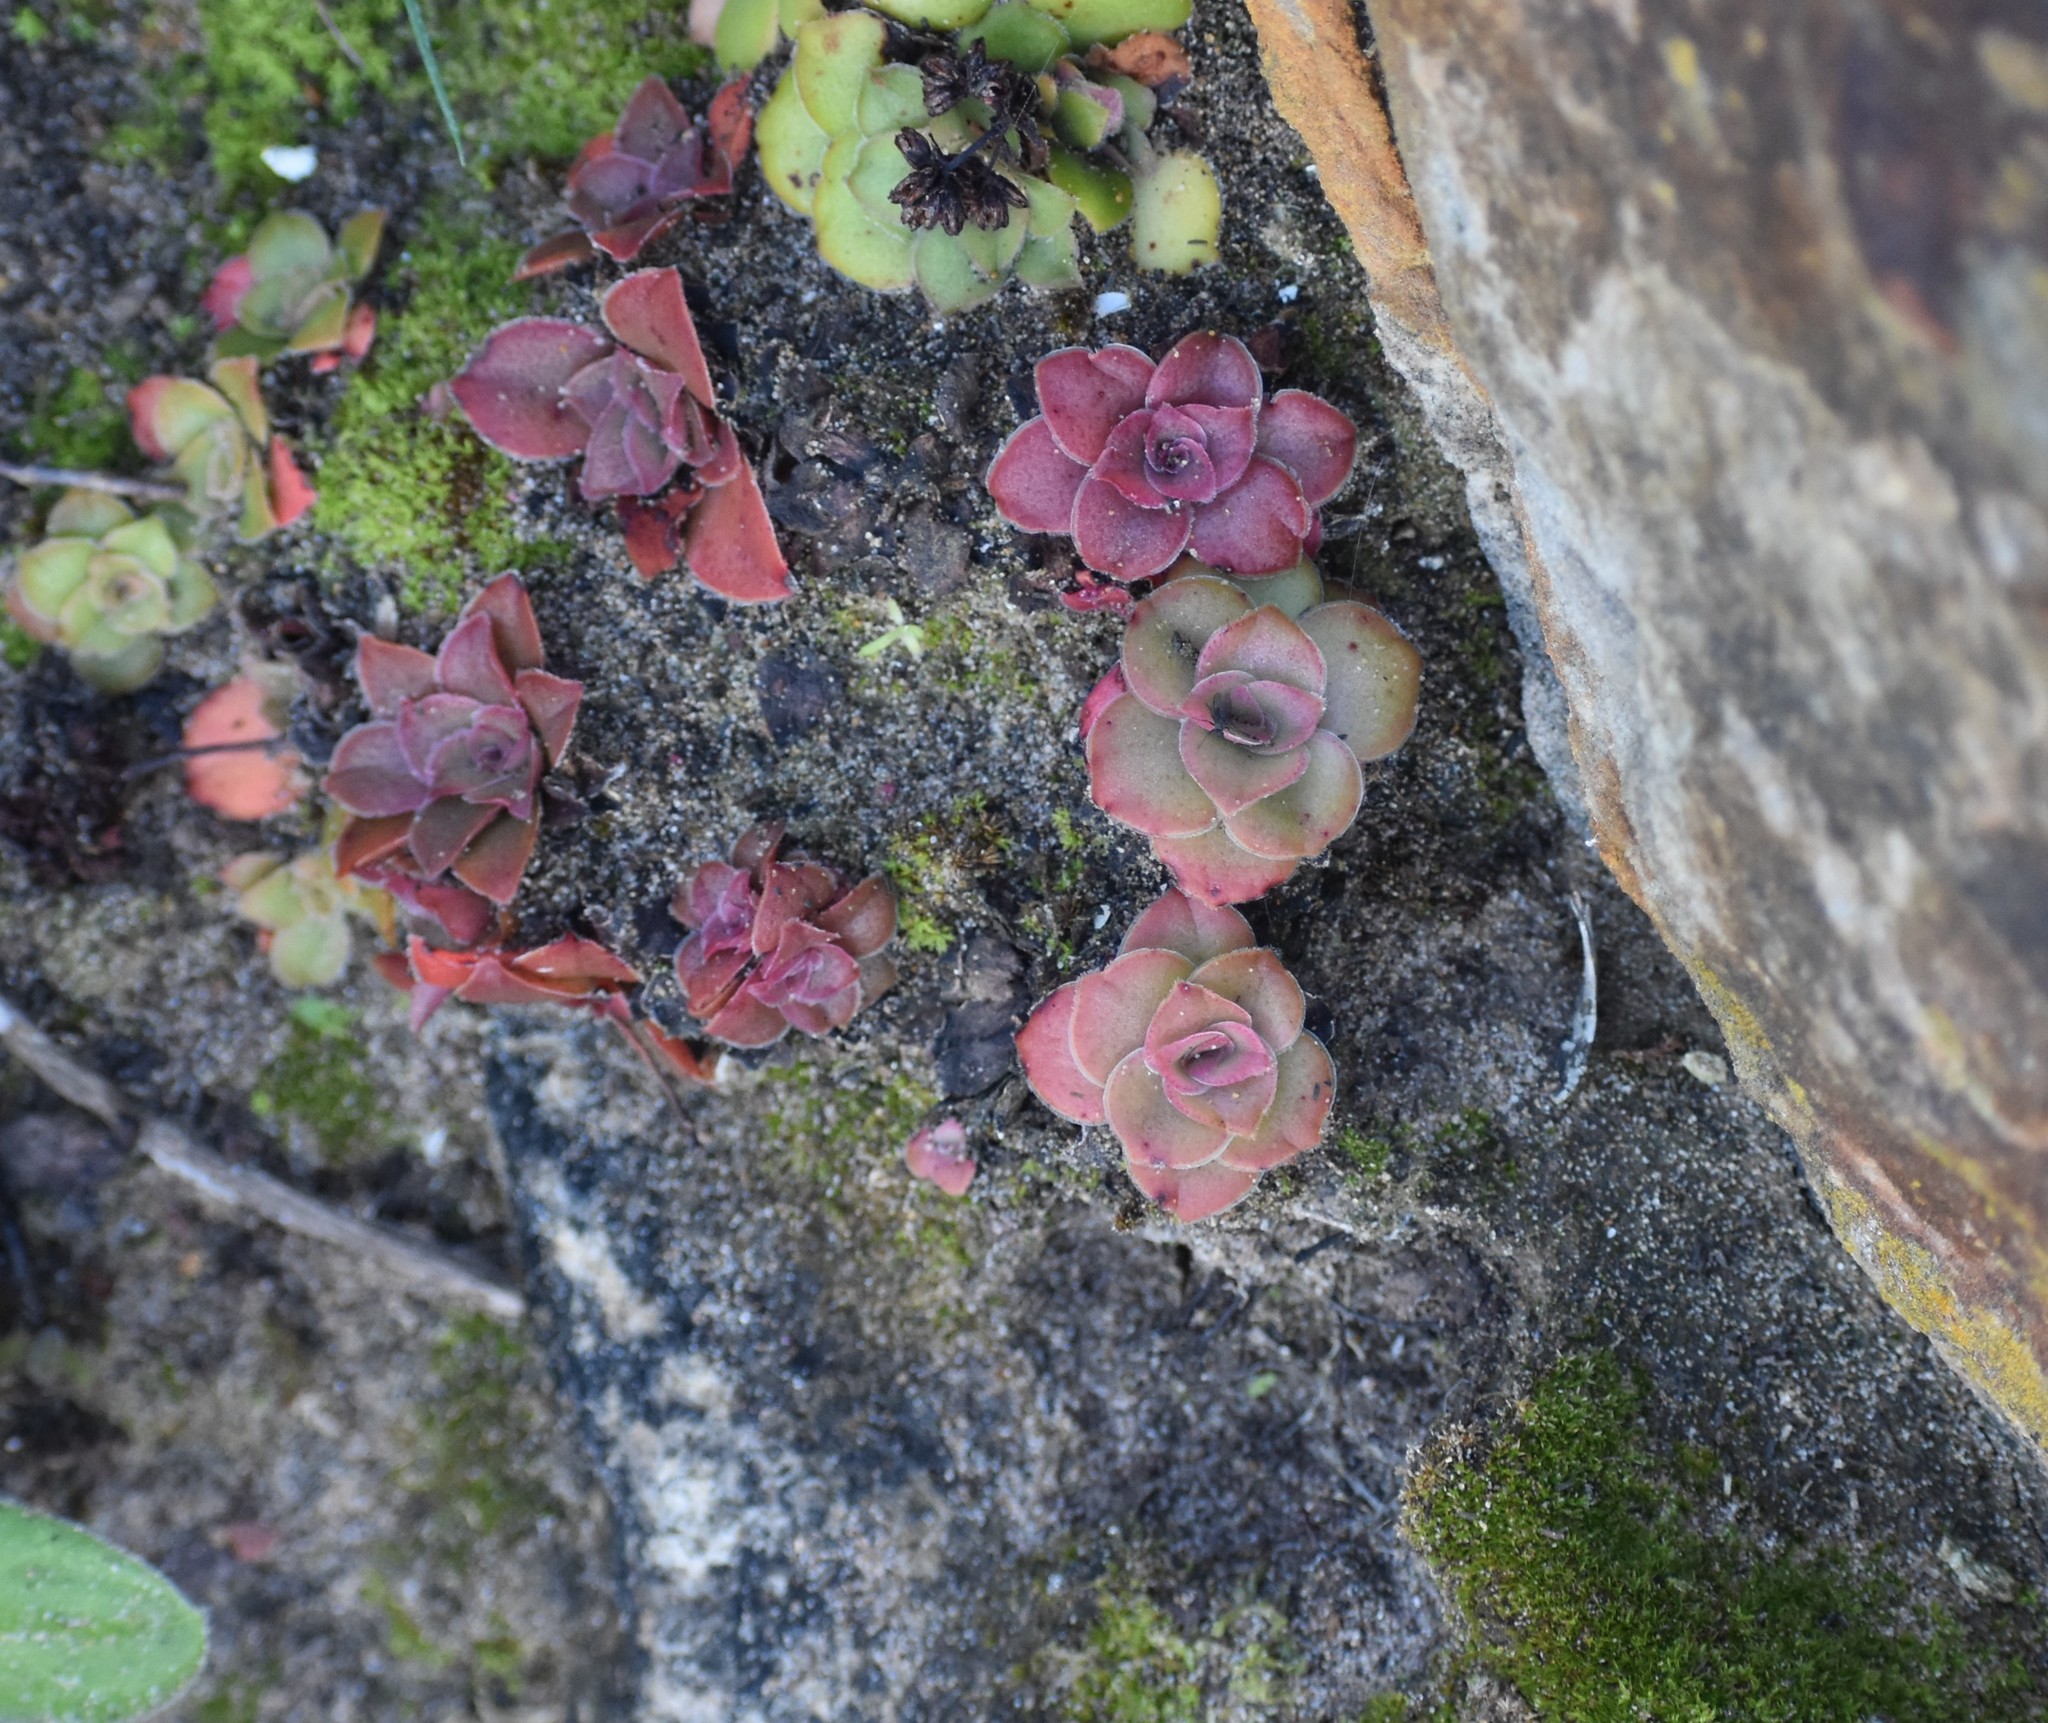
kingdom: Plantae
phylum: Tracheophyta
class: Magnoliopsida
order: Saxifragales
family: Crassulaceae
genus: Crassula
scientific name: Crassula orbicularis
